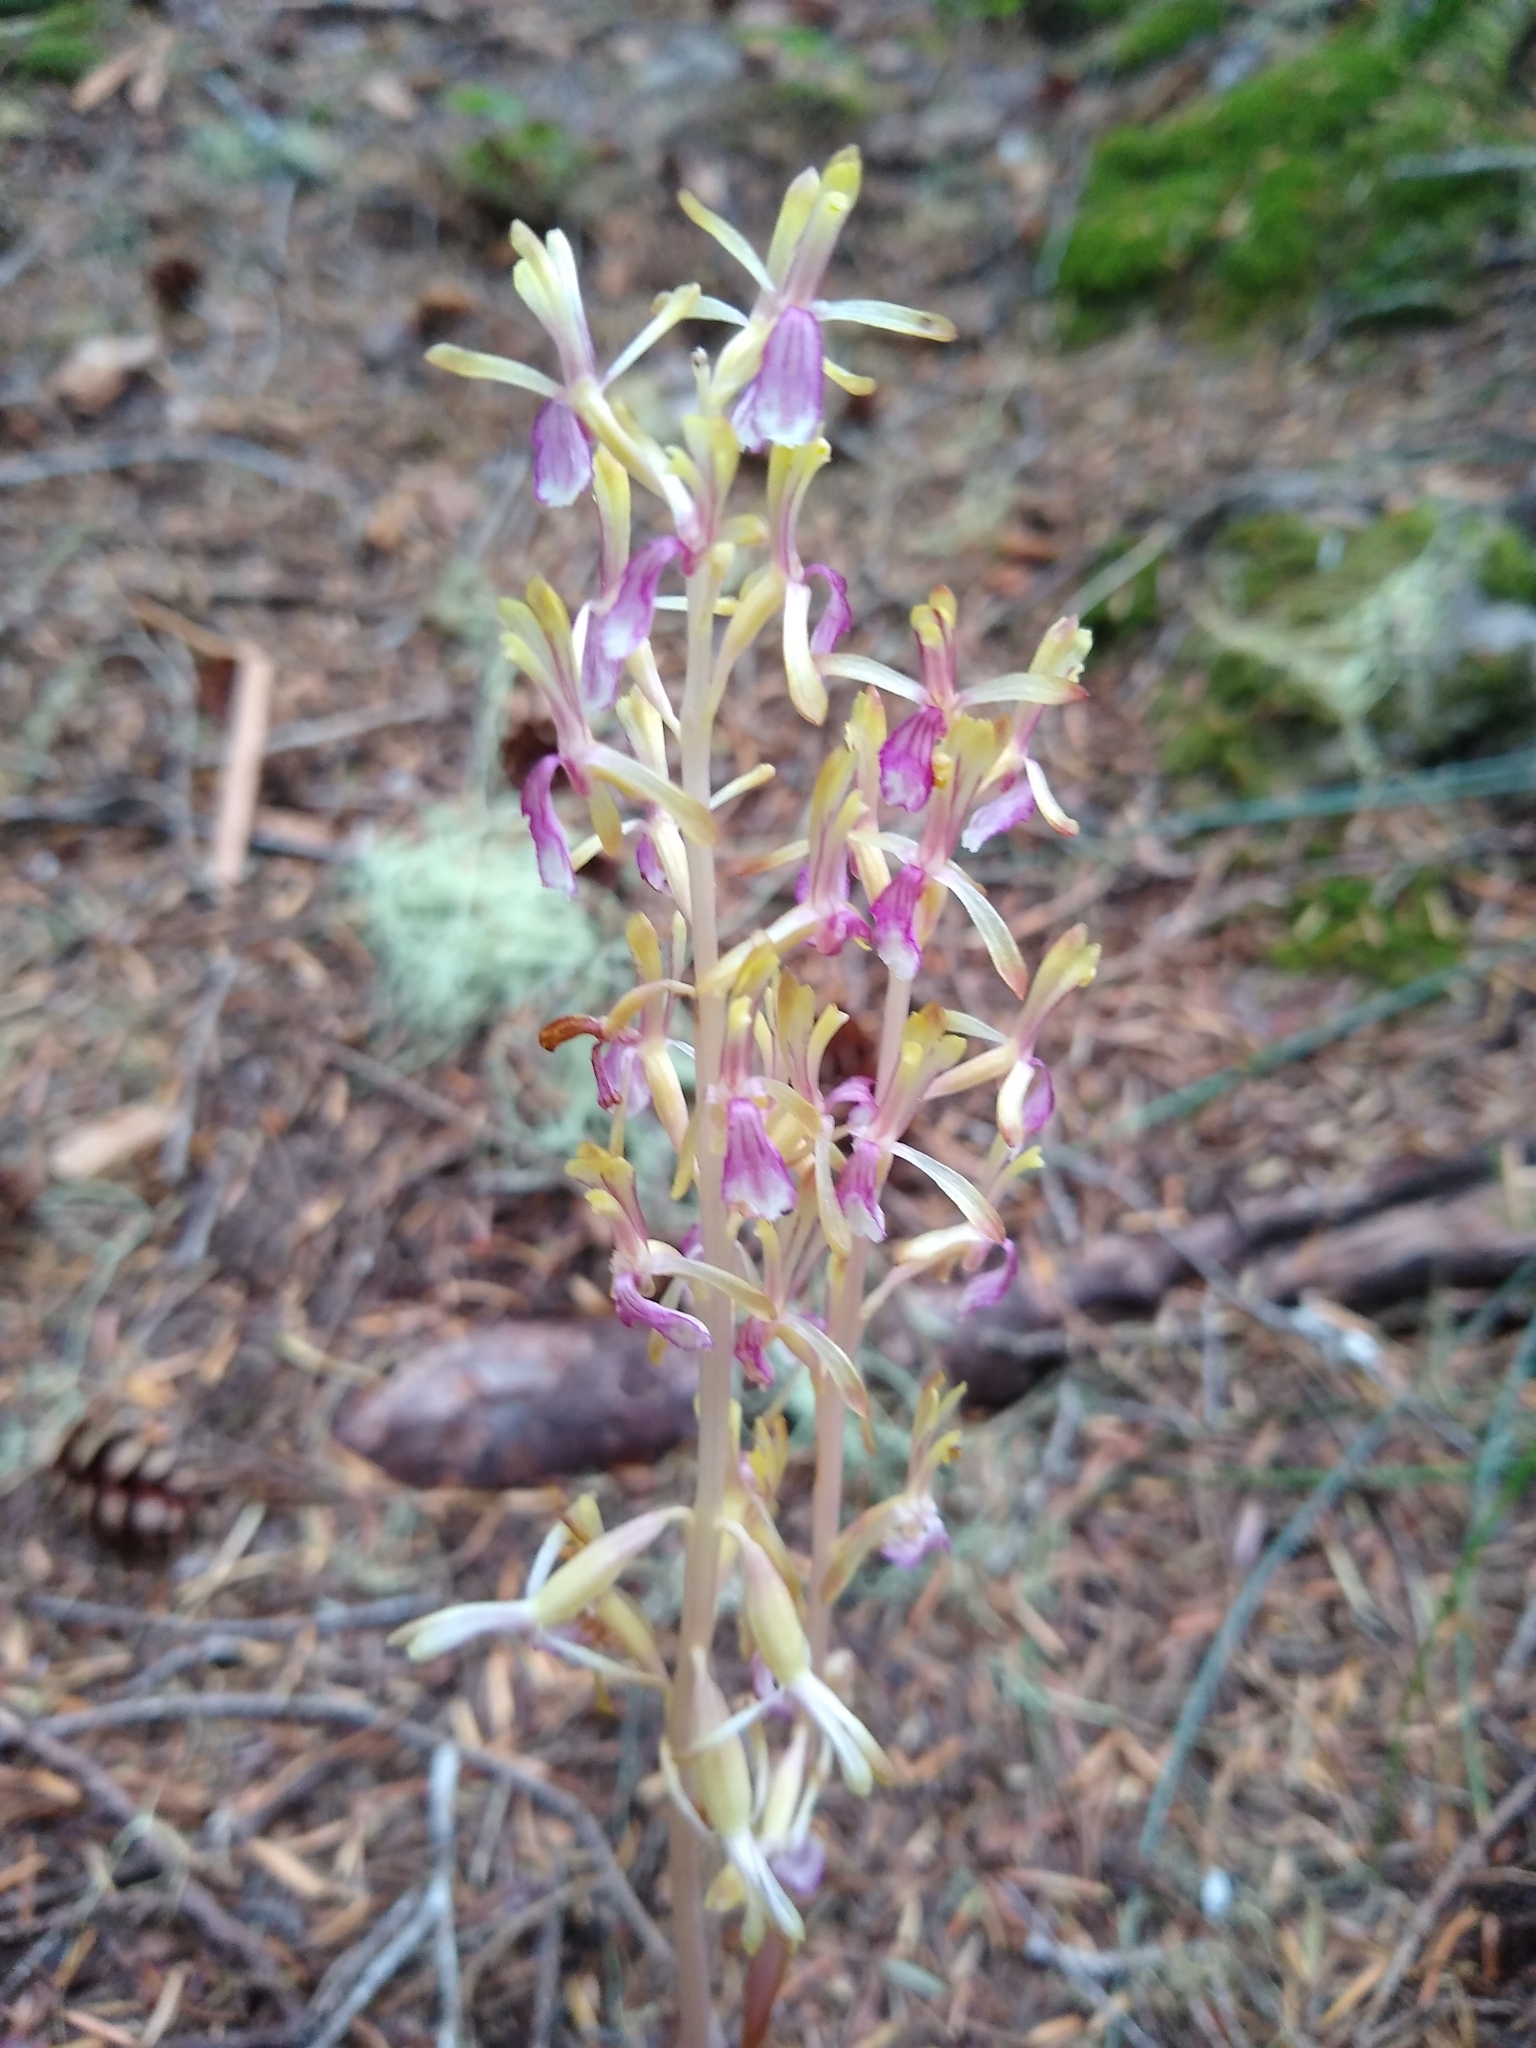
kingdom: Plantae
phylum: Tracheophyta
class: Liliopsida
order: Asparagales
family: Orchidaceae
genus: Corallorhiza
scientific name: Corallorhiza mertensiana
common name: Pacific coralroot
